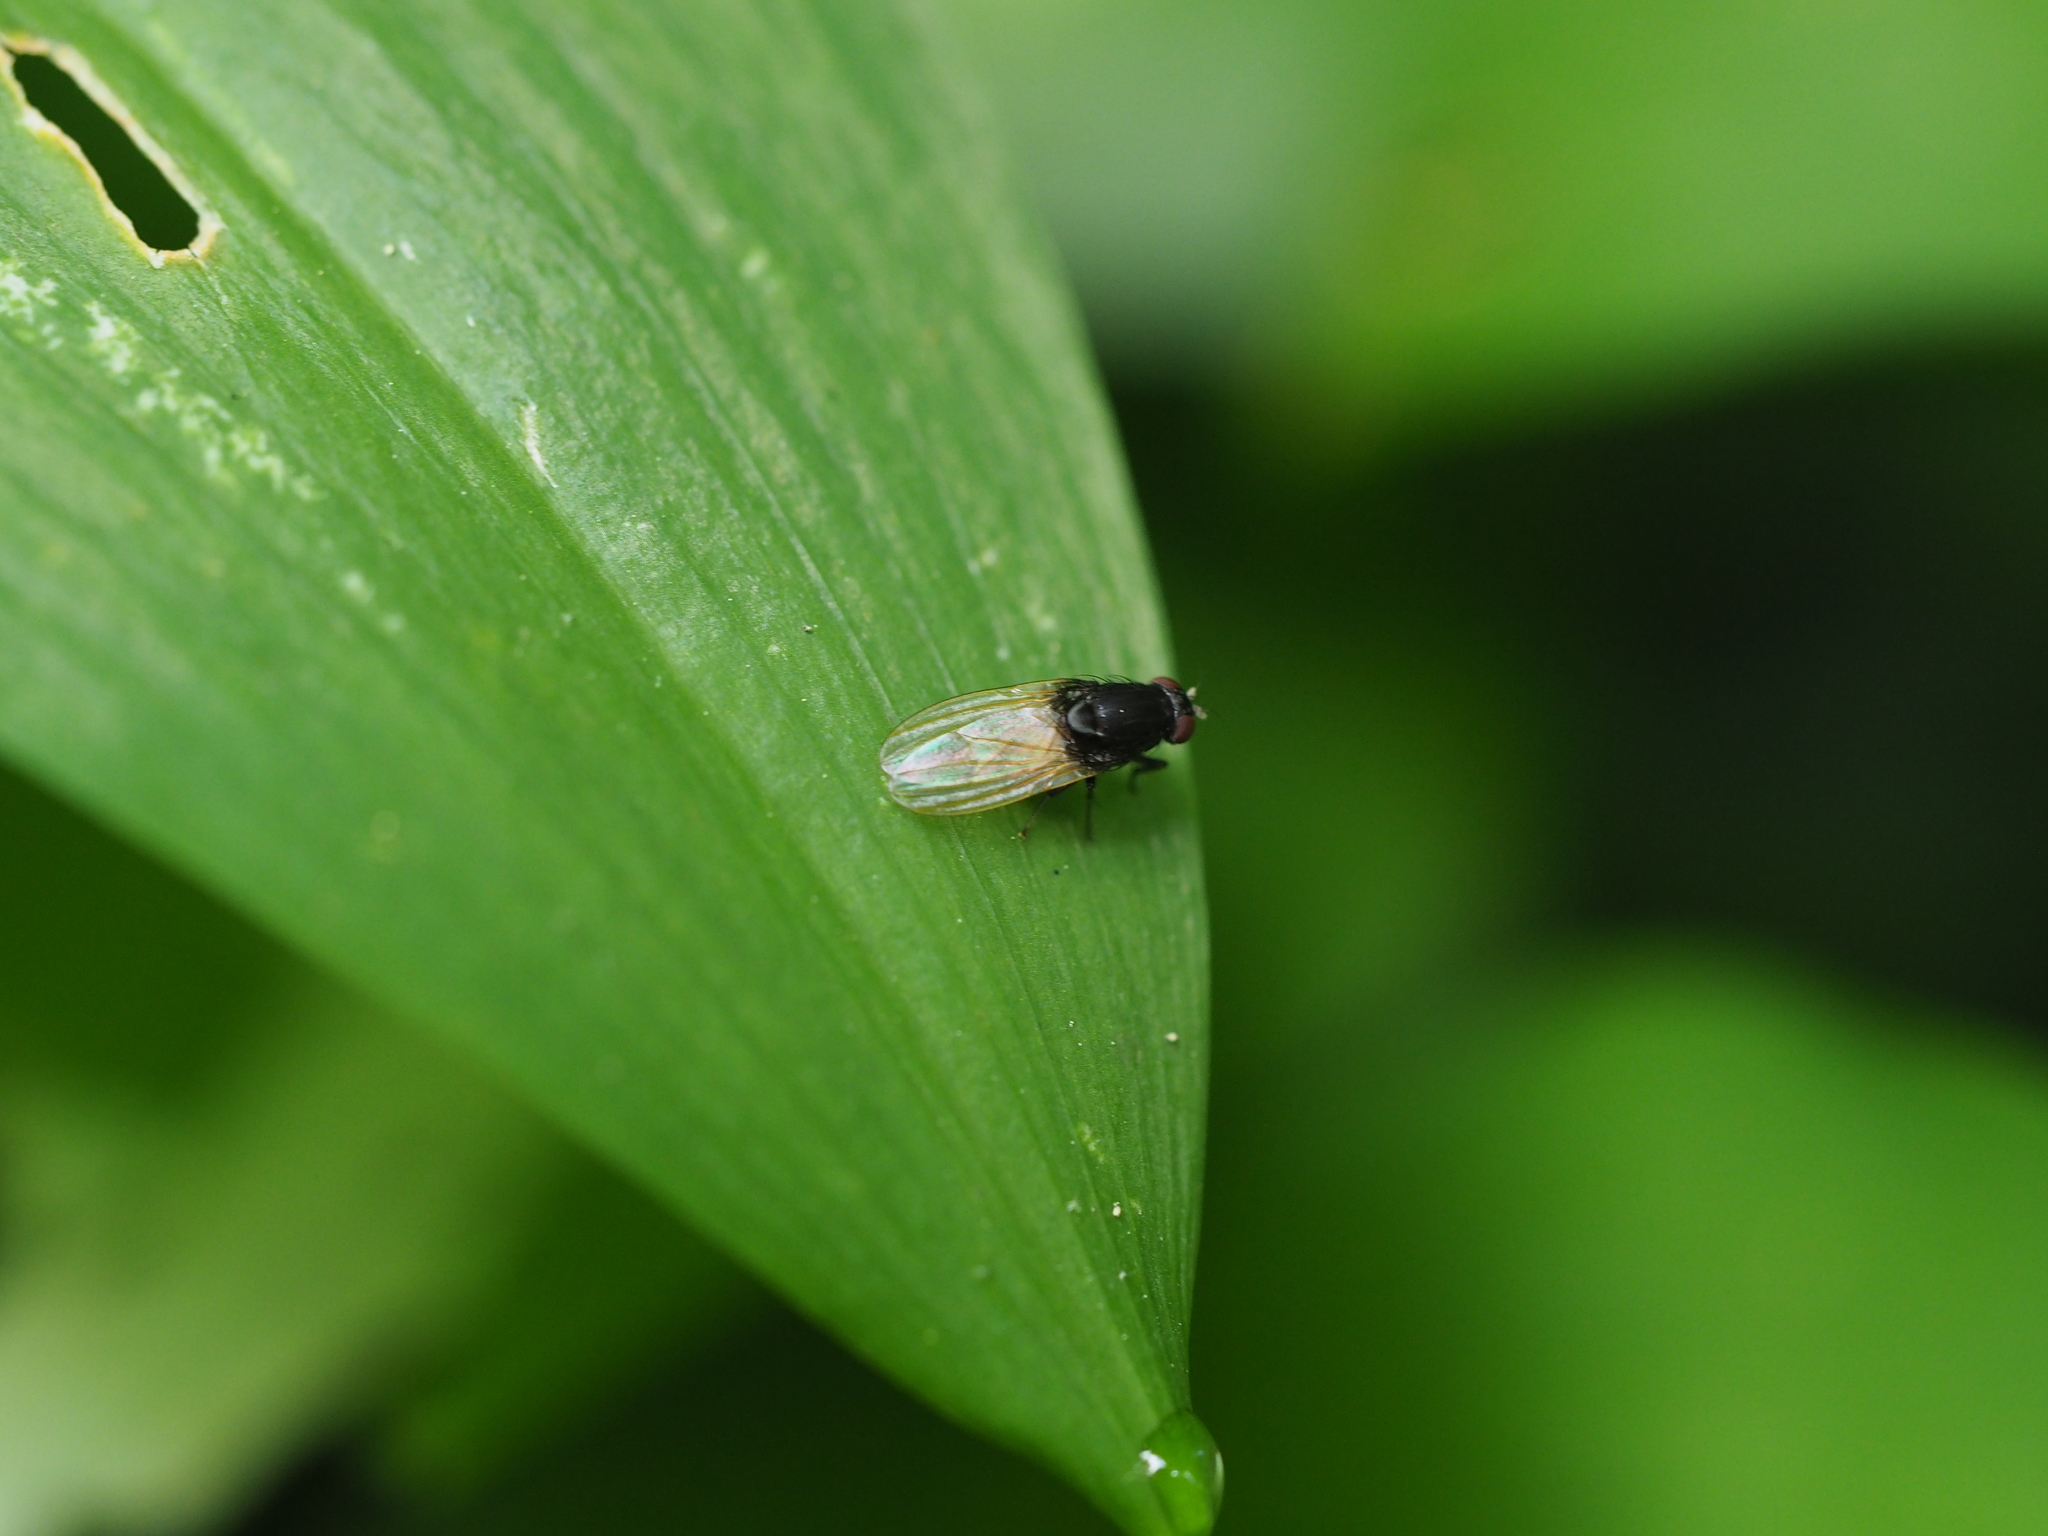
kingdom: Animalia
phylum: Arthropoda
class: Insecta
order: Diptera
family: Lauxaniidae
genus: Minettia
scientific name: Minettia longipennis
